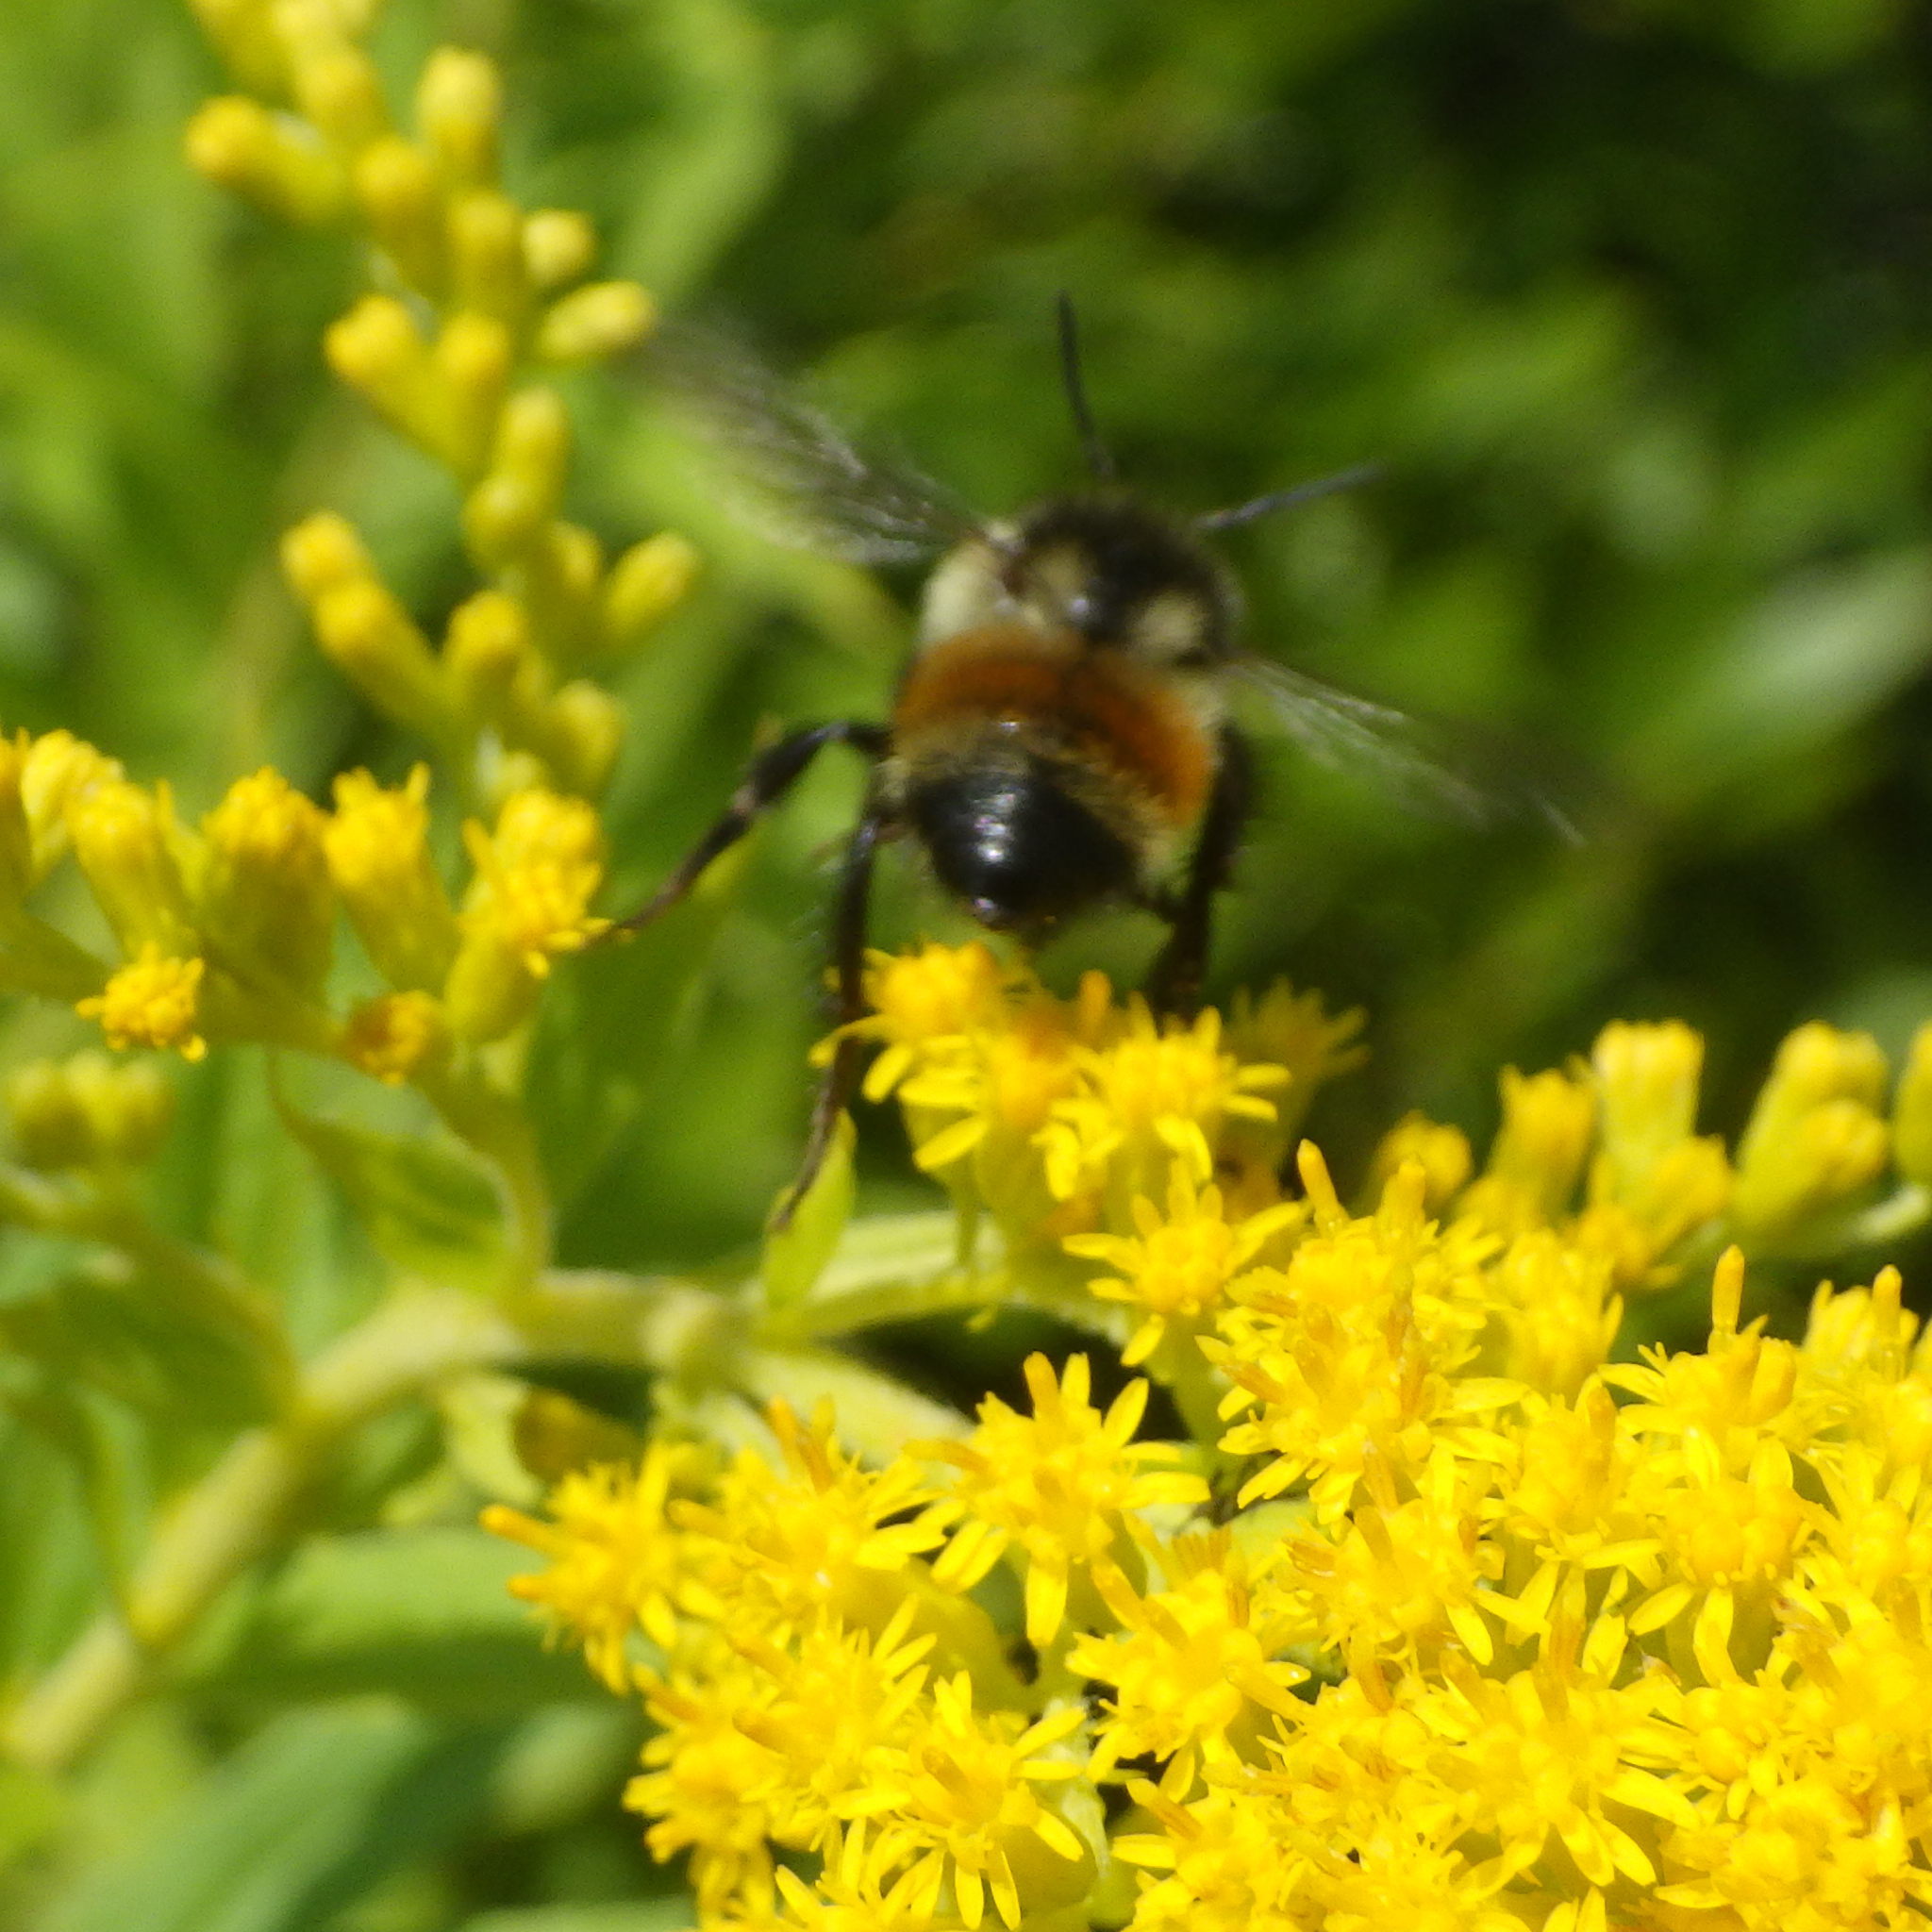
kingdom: Animalia
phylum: Arthropoda
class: Insecta
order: Hymenoptera
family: Apidae
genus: Bombus
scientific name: Bombus ternarius
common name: Tri-colored bumble bee
